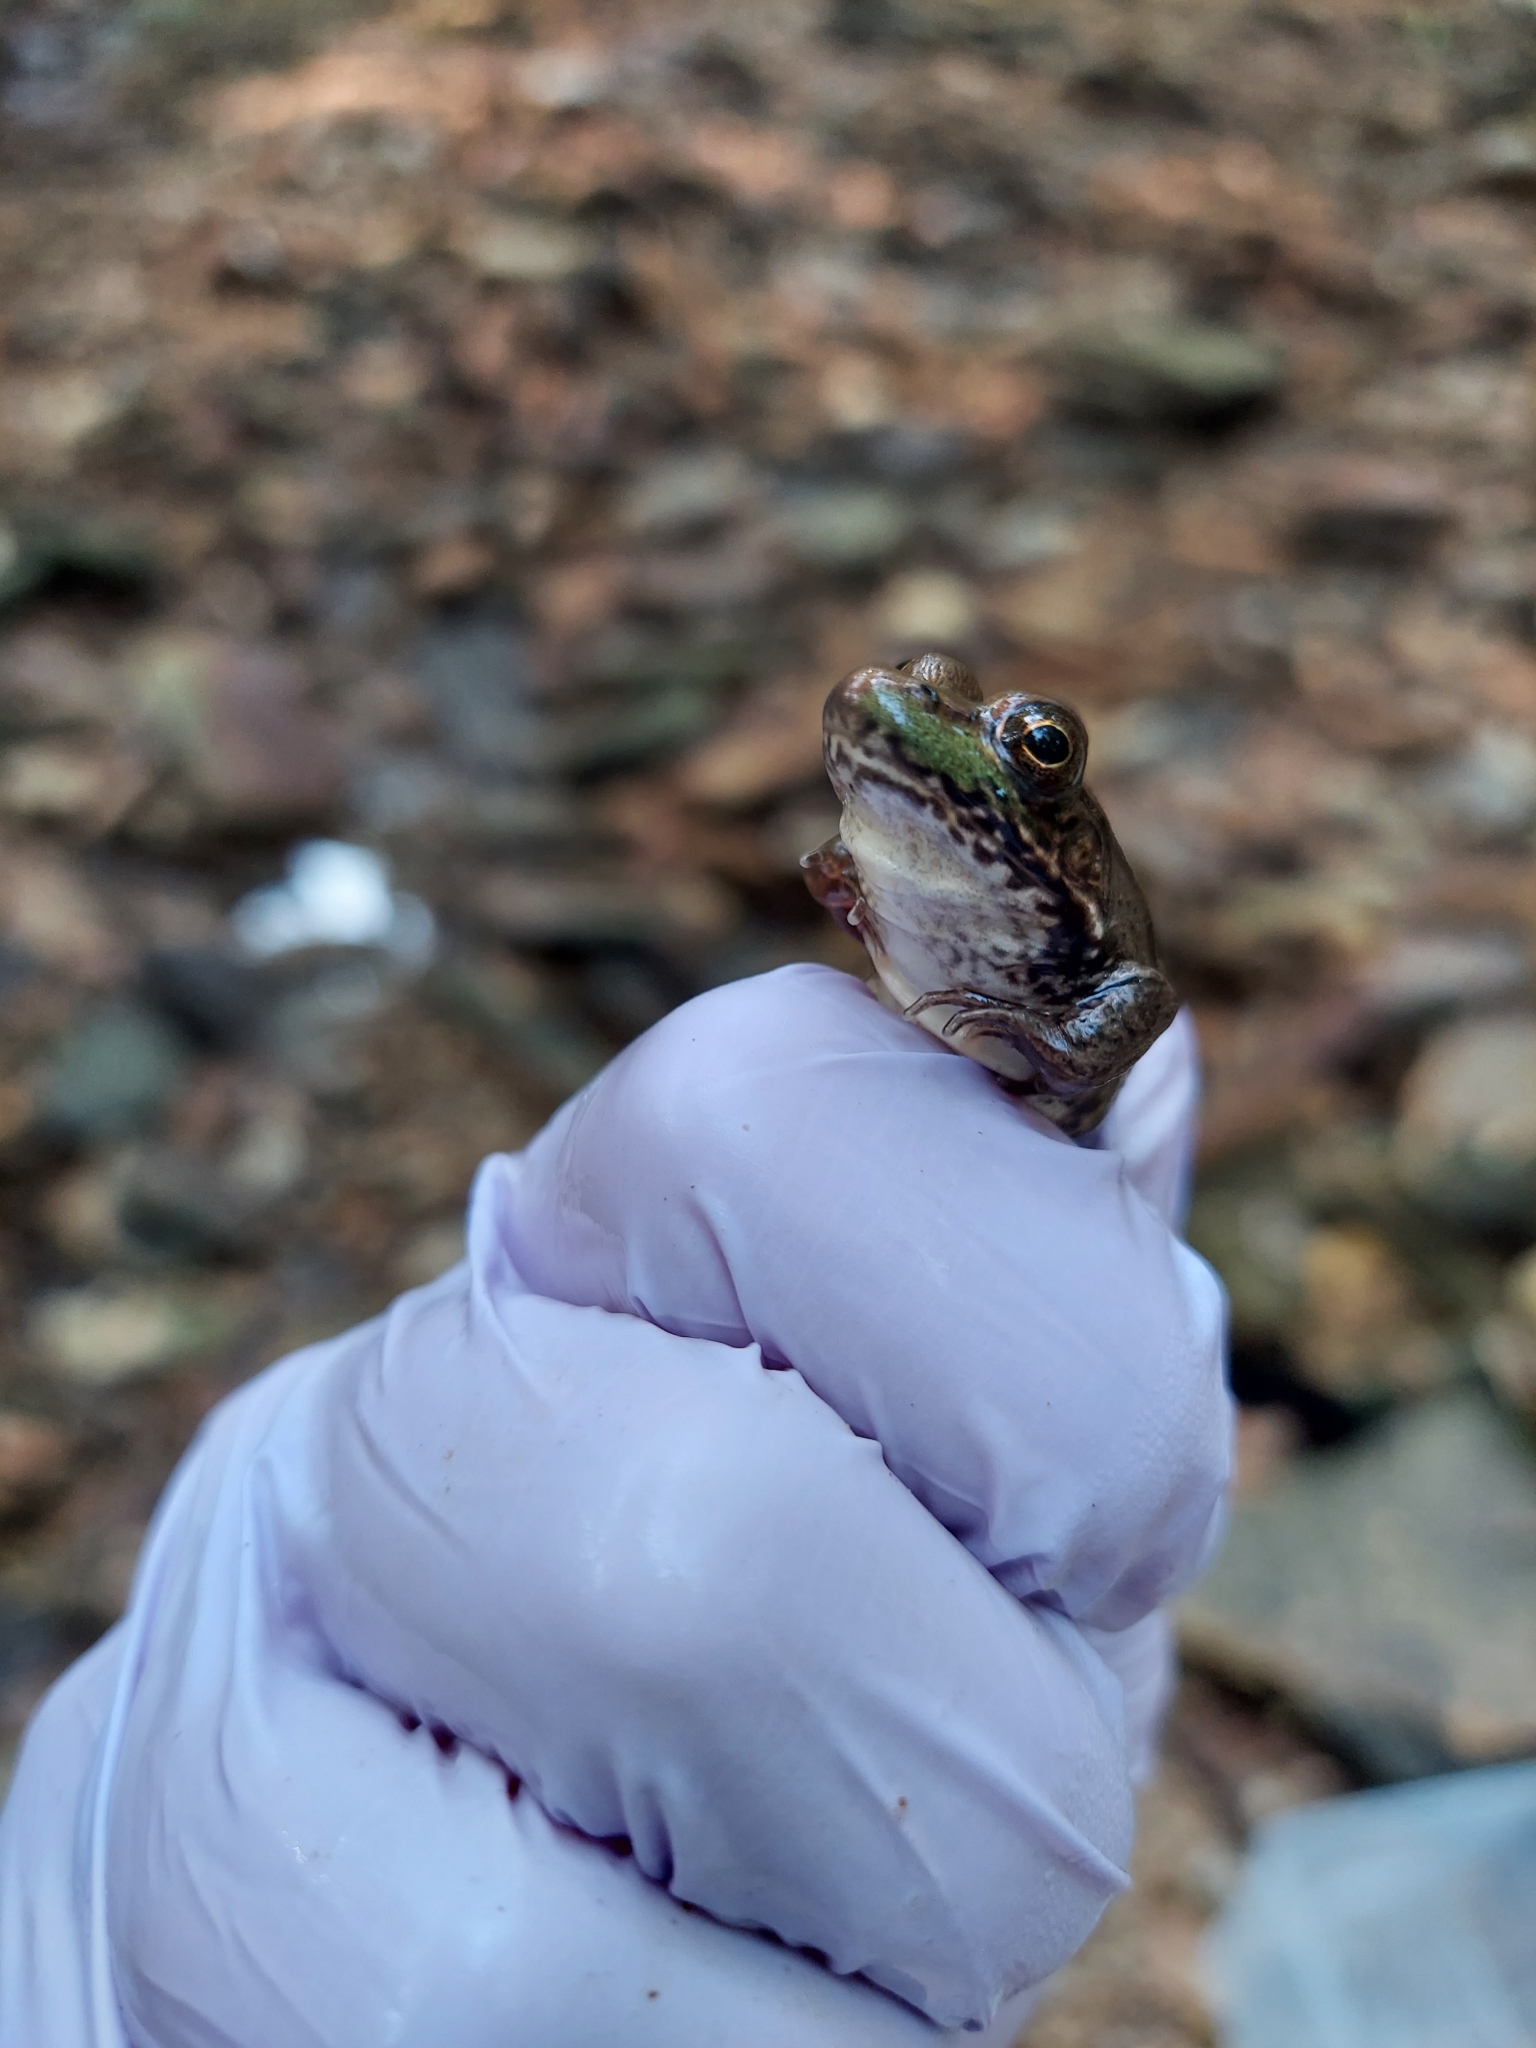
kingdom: Animalia
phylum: Chordata
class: Amphibia
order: Anura
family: Ranidae
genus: Lithobates
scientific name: Lithobates clamitans
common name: Green frog
